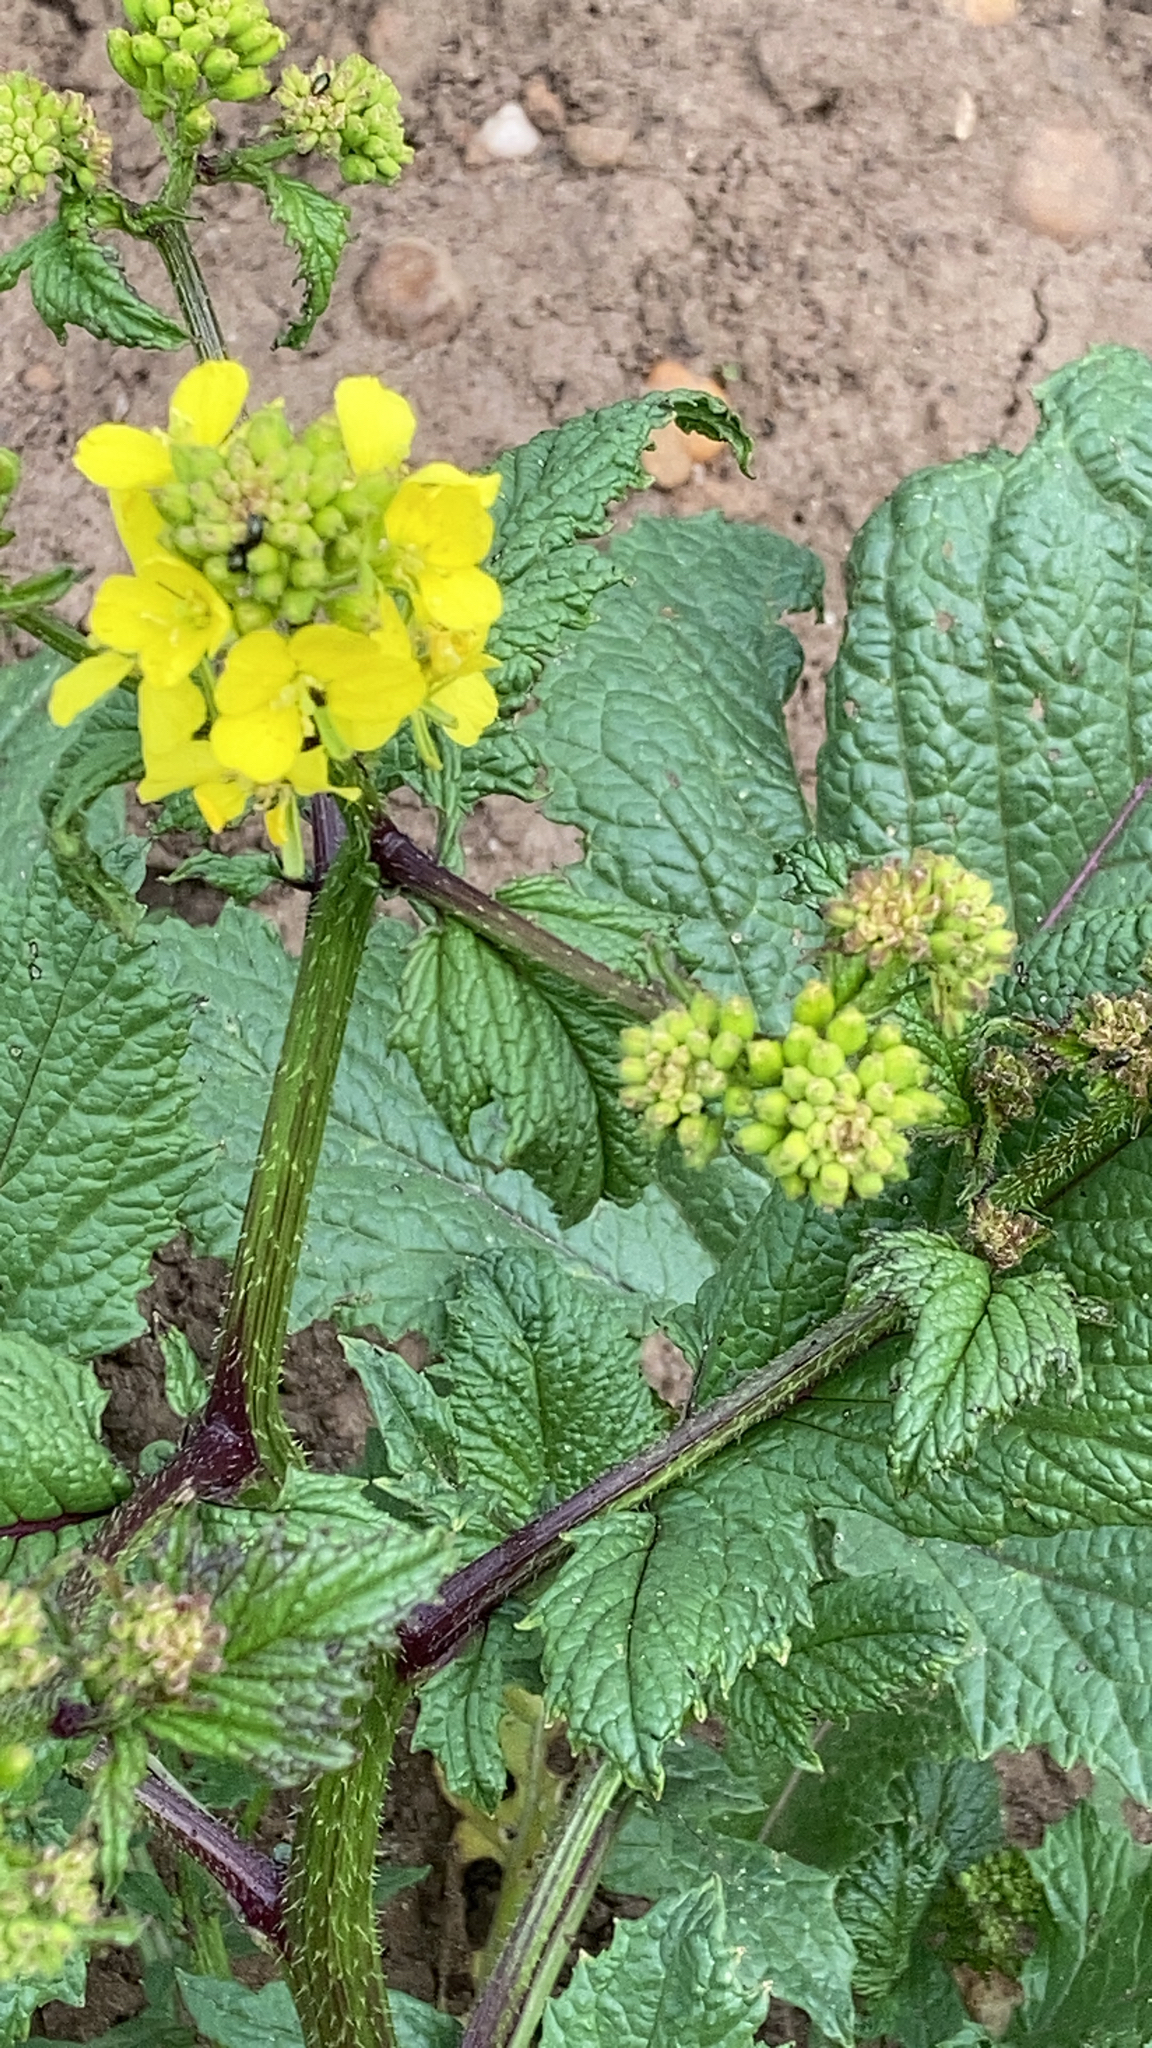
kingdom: Plantae
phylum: Tracheophyta
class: Magnoliopsida
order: Brassicales
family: Brassicaceae
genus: Sinapis
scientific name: Sinapis arvensis
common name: Charlock
